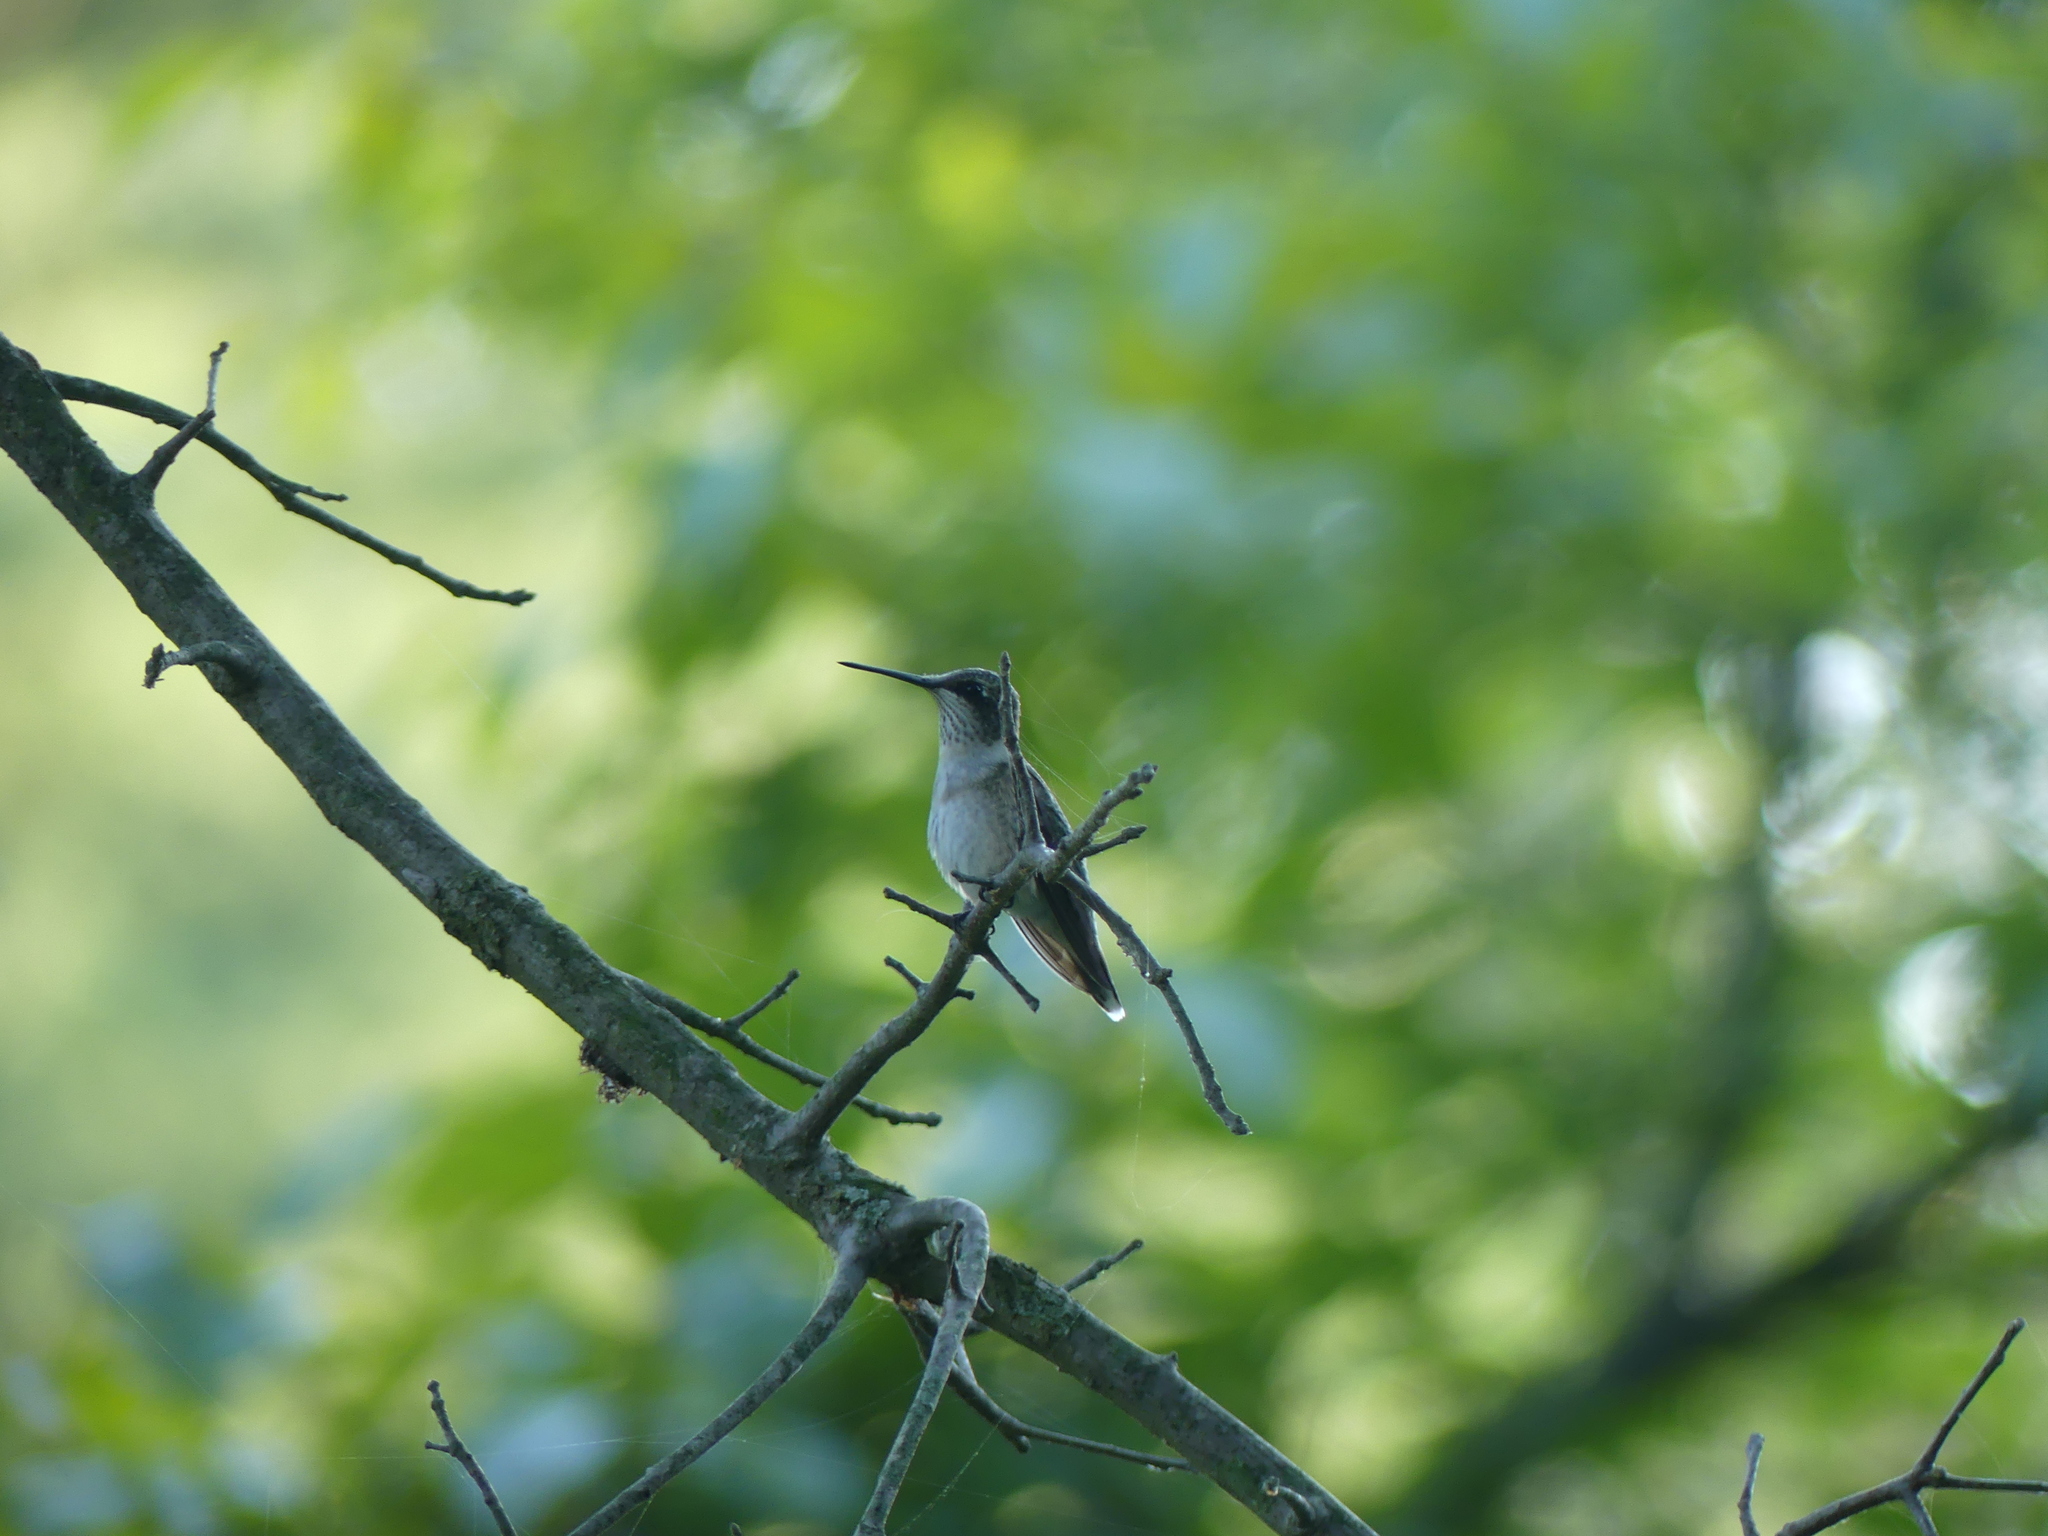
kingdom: Animalia
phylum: Chordata
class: Aves
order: Apodiformes
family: Trochilidae
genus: Archilochus
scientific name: Archilochus colubris
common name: Ruby-throated hummingbird
